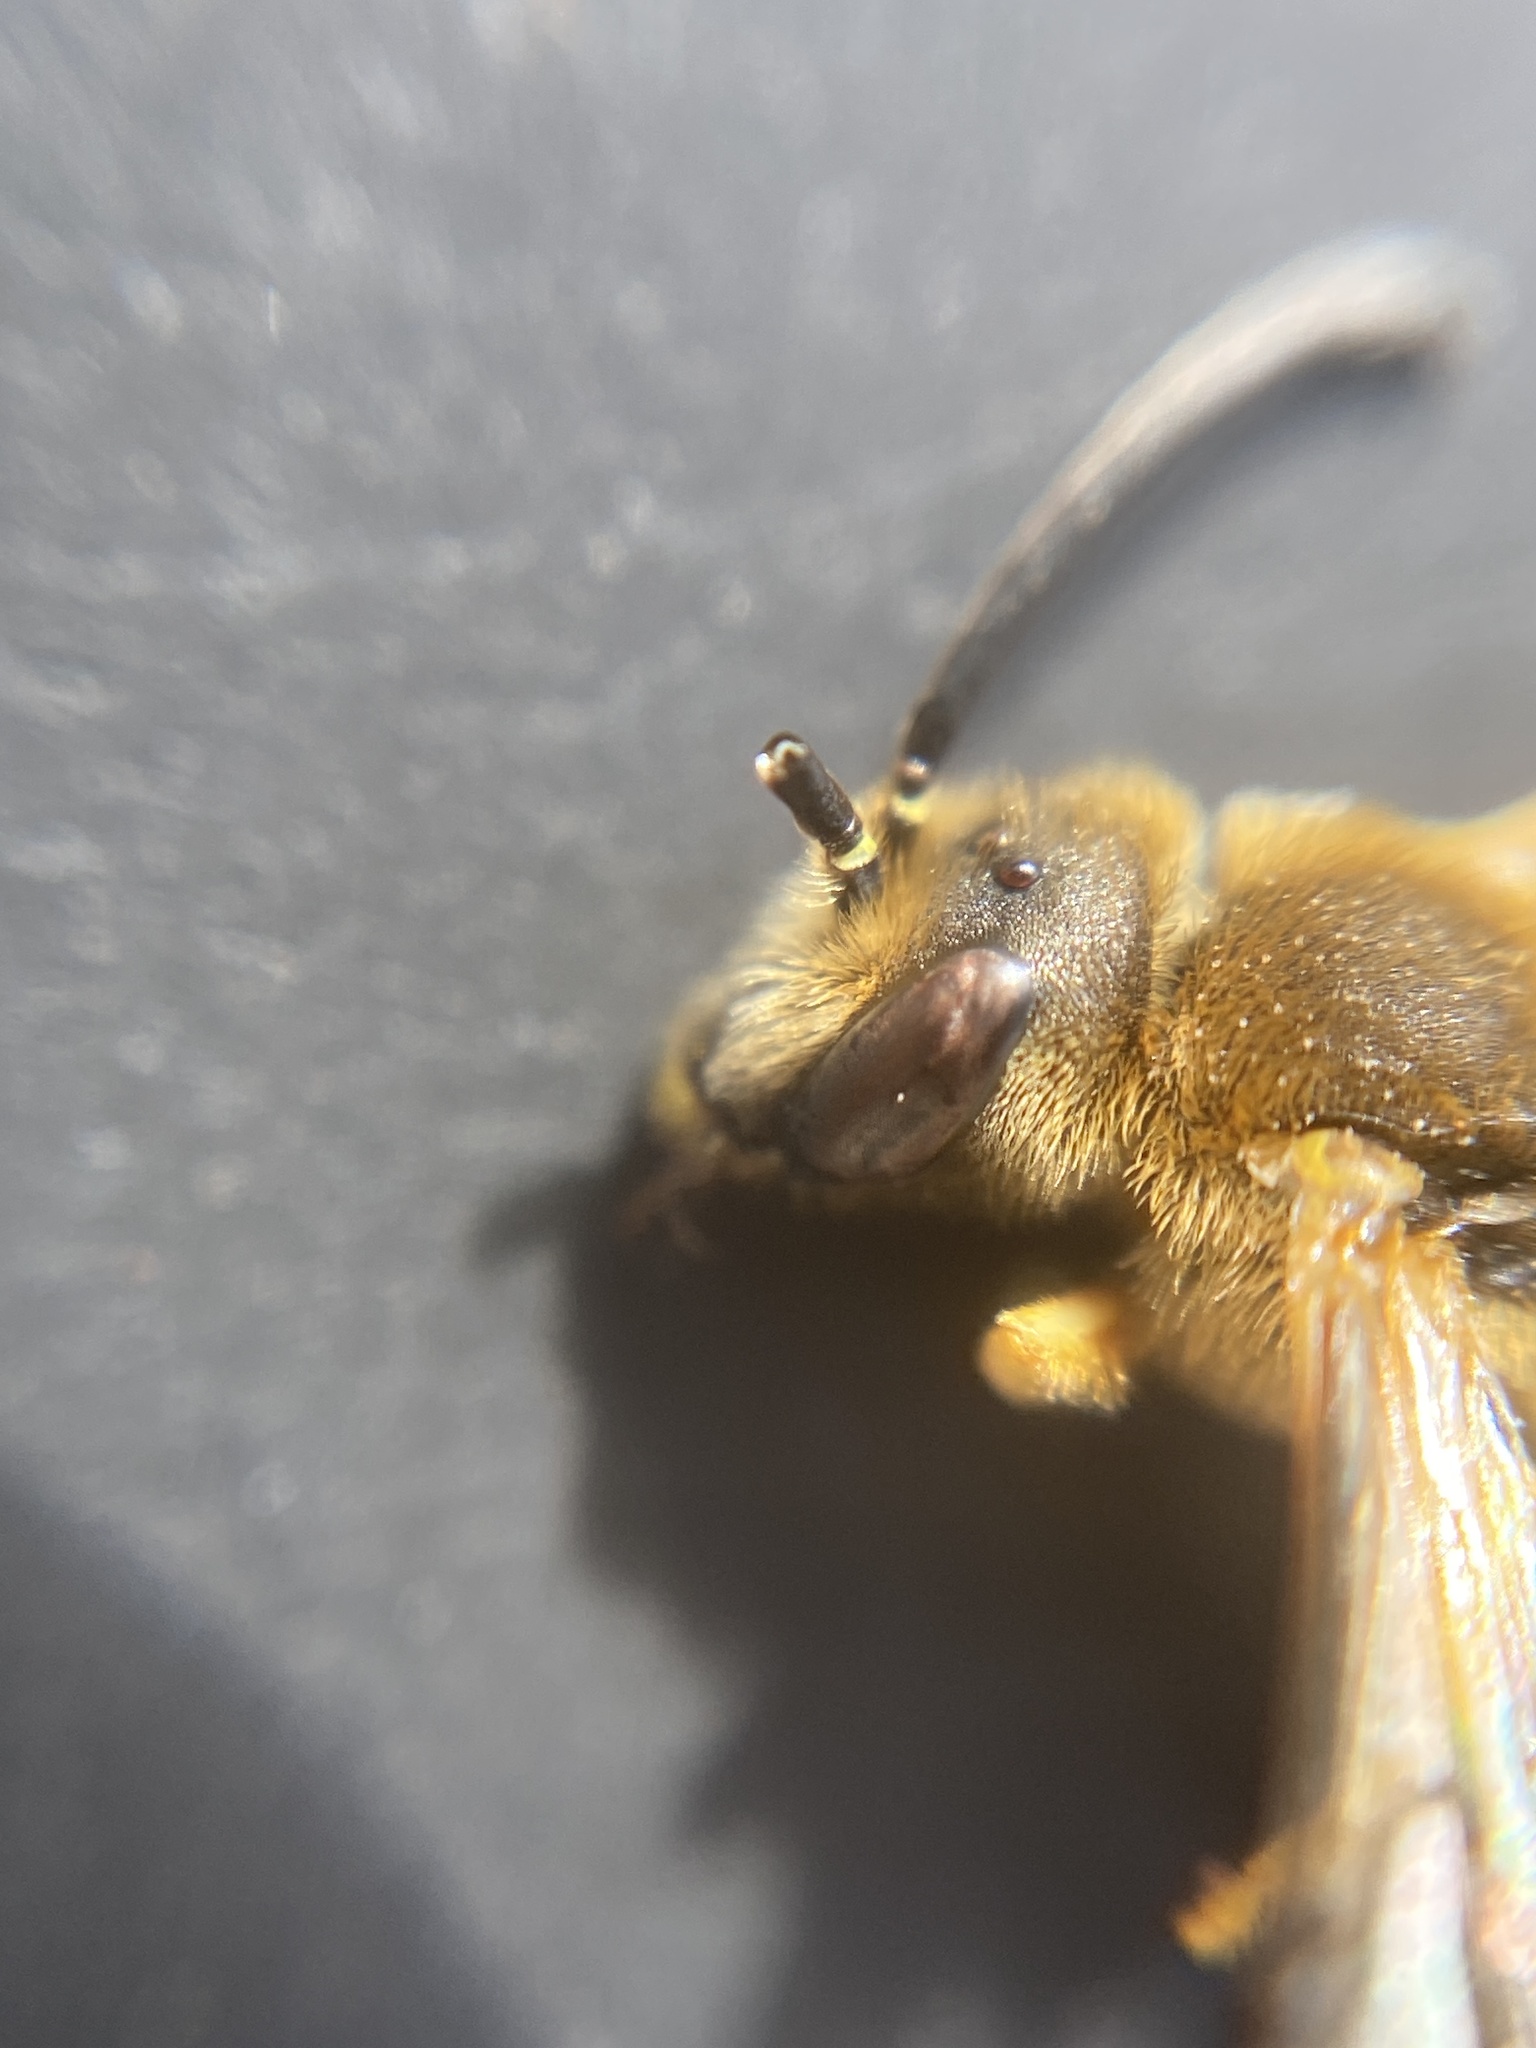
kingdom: Animalia
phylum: Arthropoda
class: Insecta
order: Hymenoptera
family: Halictidae
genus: Halictus
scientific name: Halictus scabiosae
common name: Great banded furrow bee
